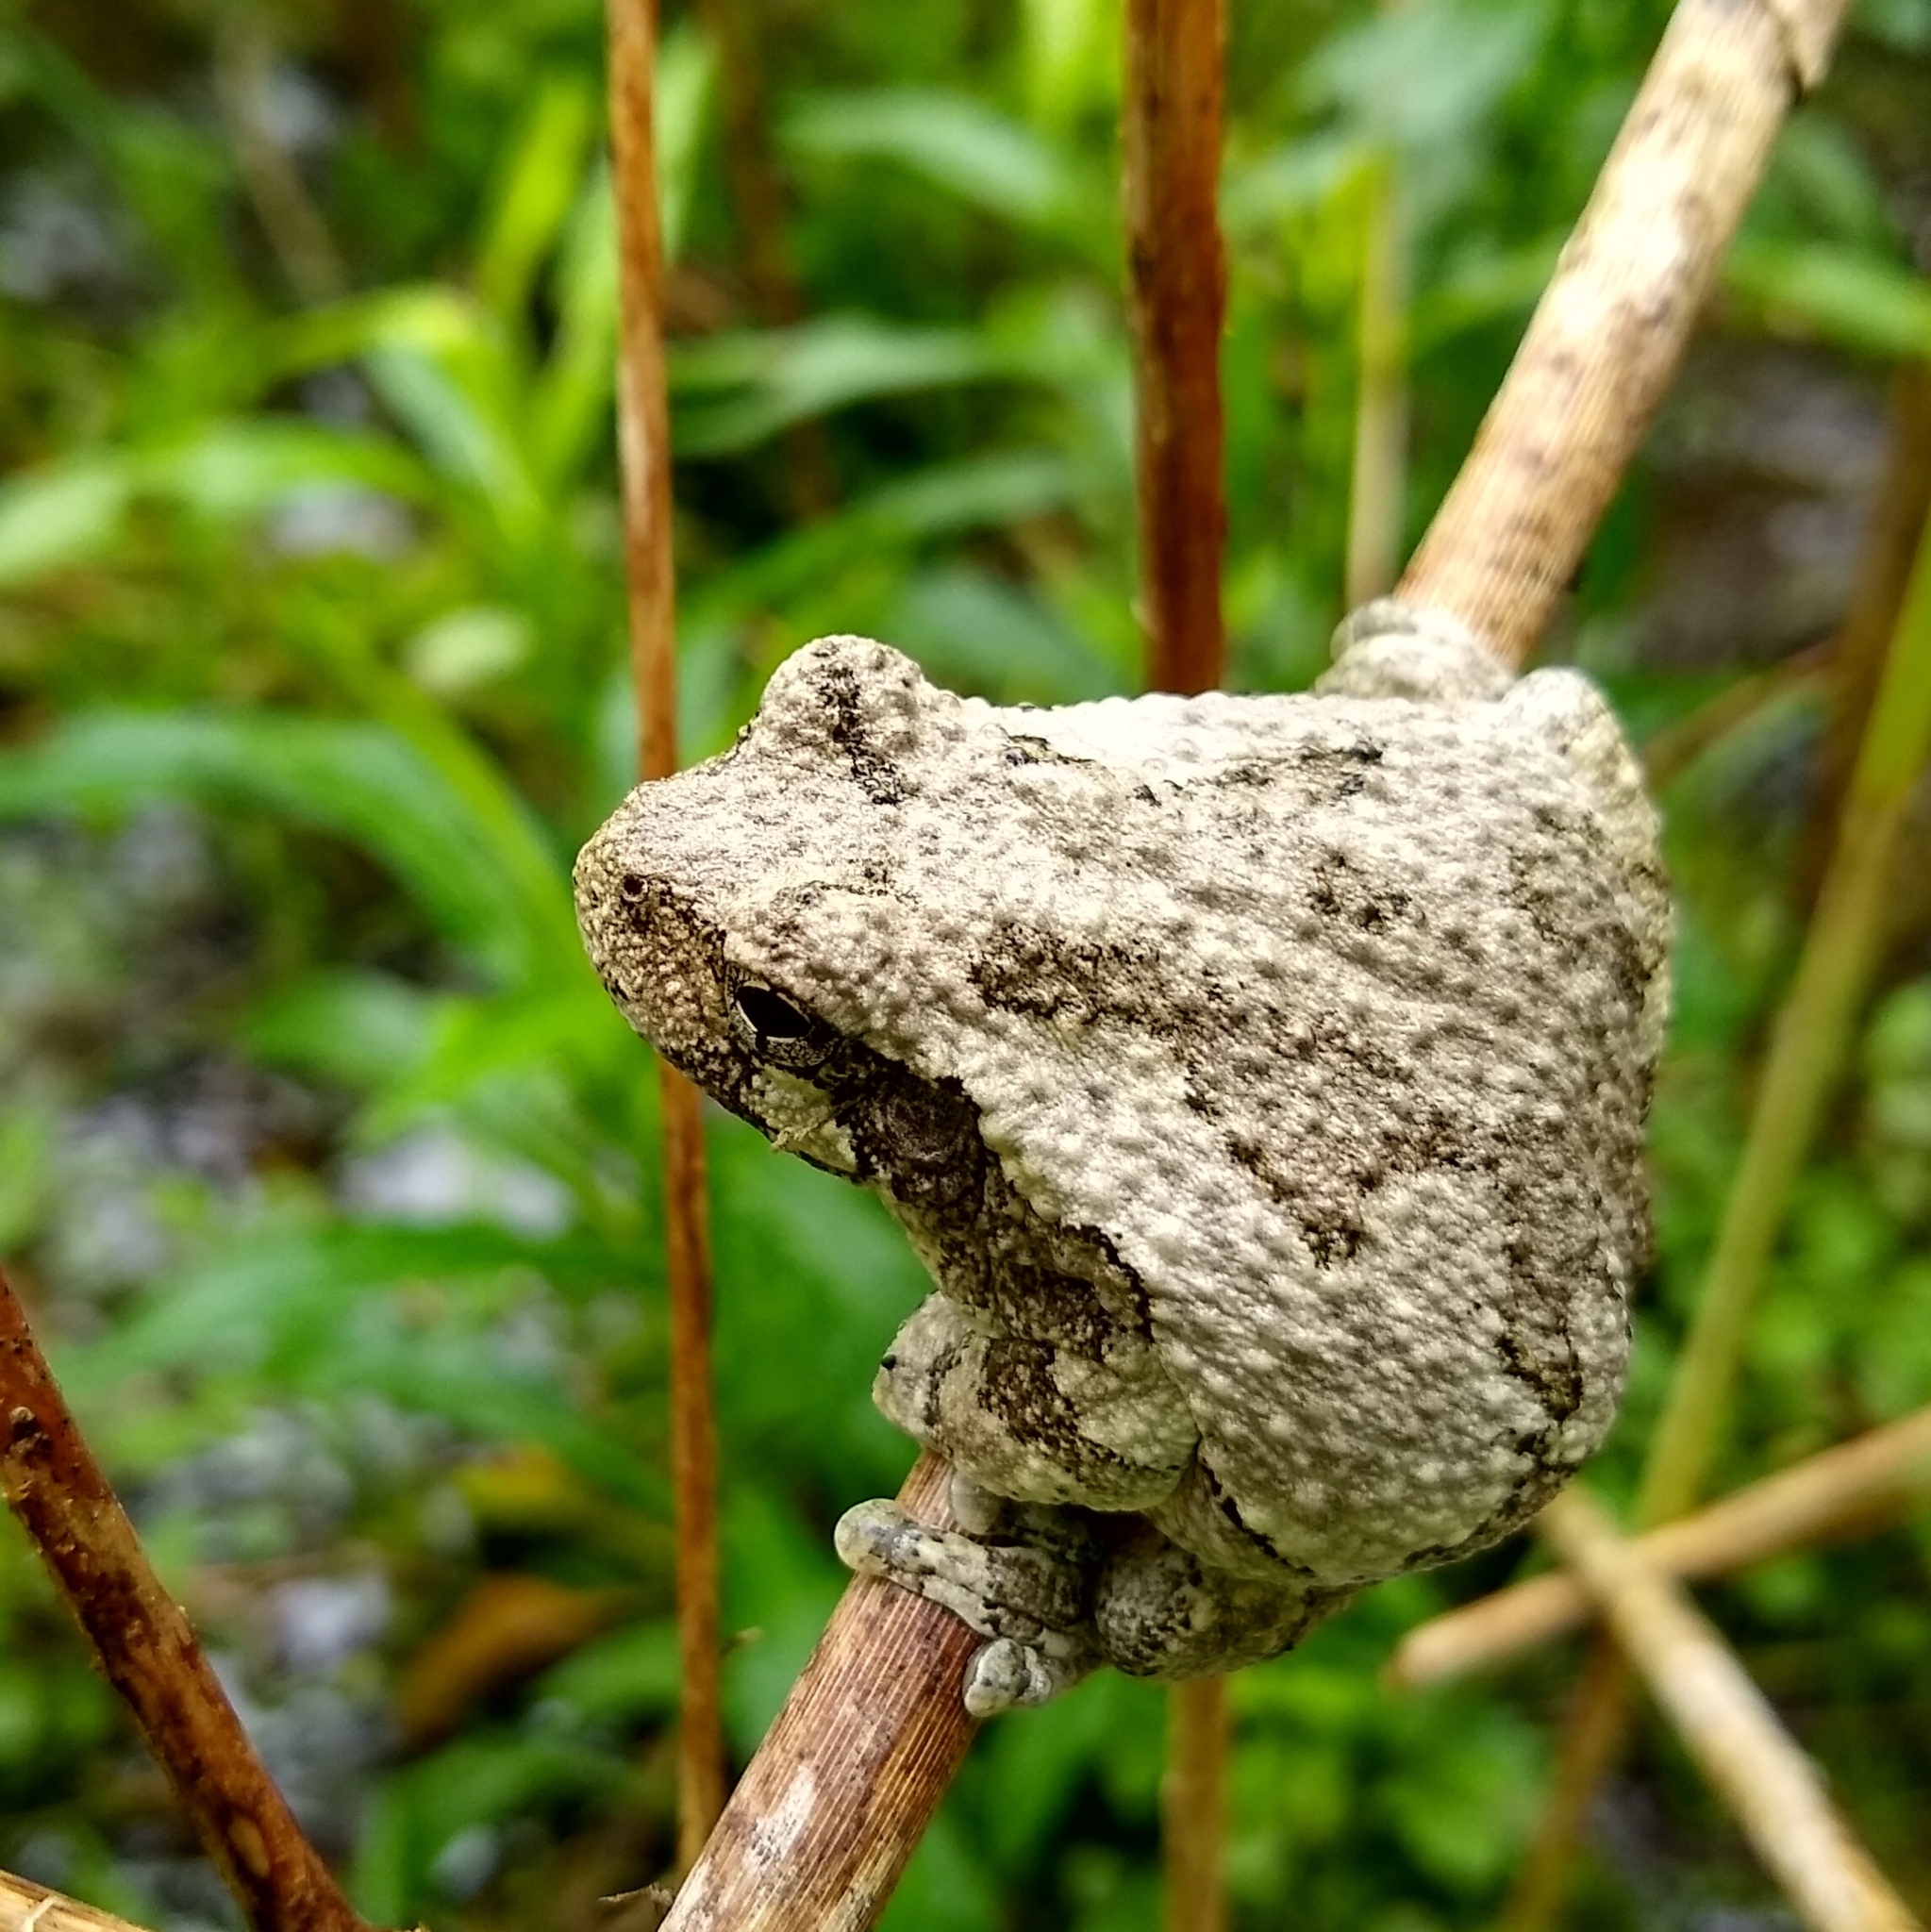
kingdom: Animalia
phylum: Chordata
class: Amphibia
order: Anura
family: Hylidae
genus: Dryophytes
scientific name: Dryophytes versicolor
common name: Gray treefrog
